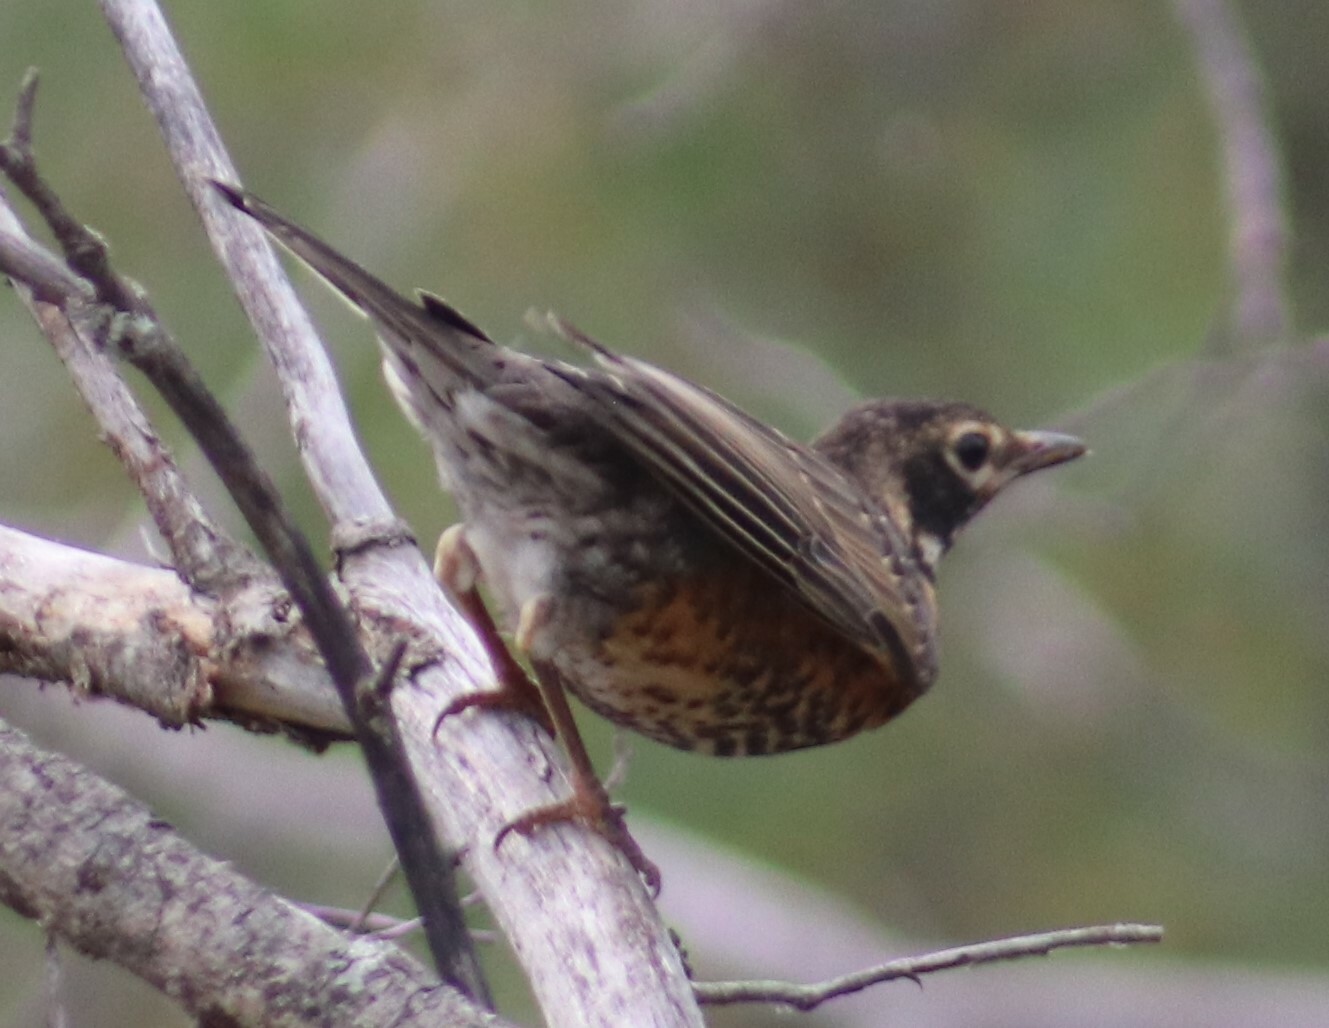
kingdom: Animalia
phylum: Chordata
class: Aves
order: Passeriformes
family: Turdidae
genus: Turdus
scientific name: Turdus migratorius
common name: American robin
